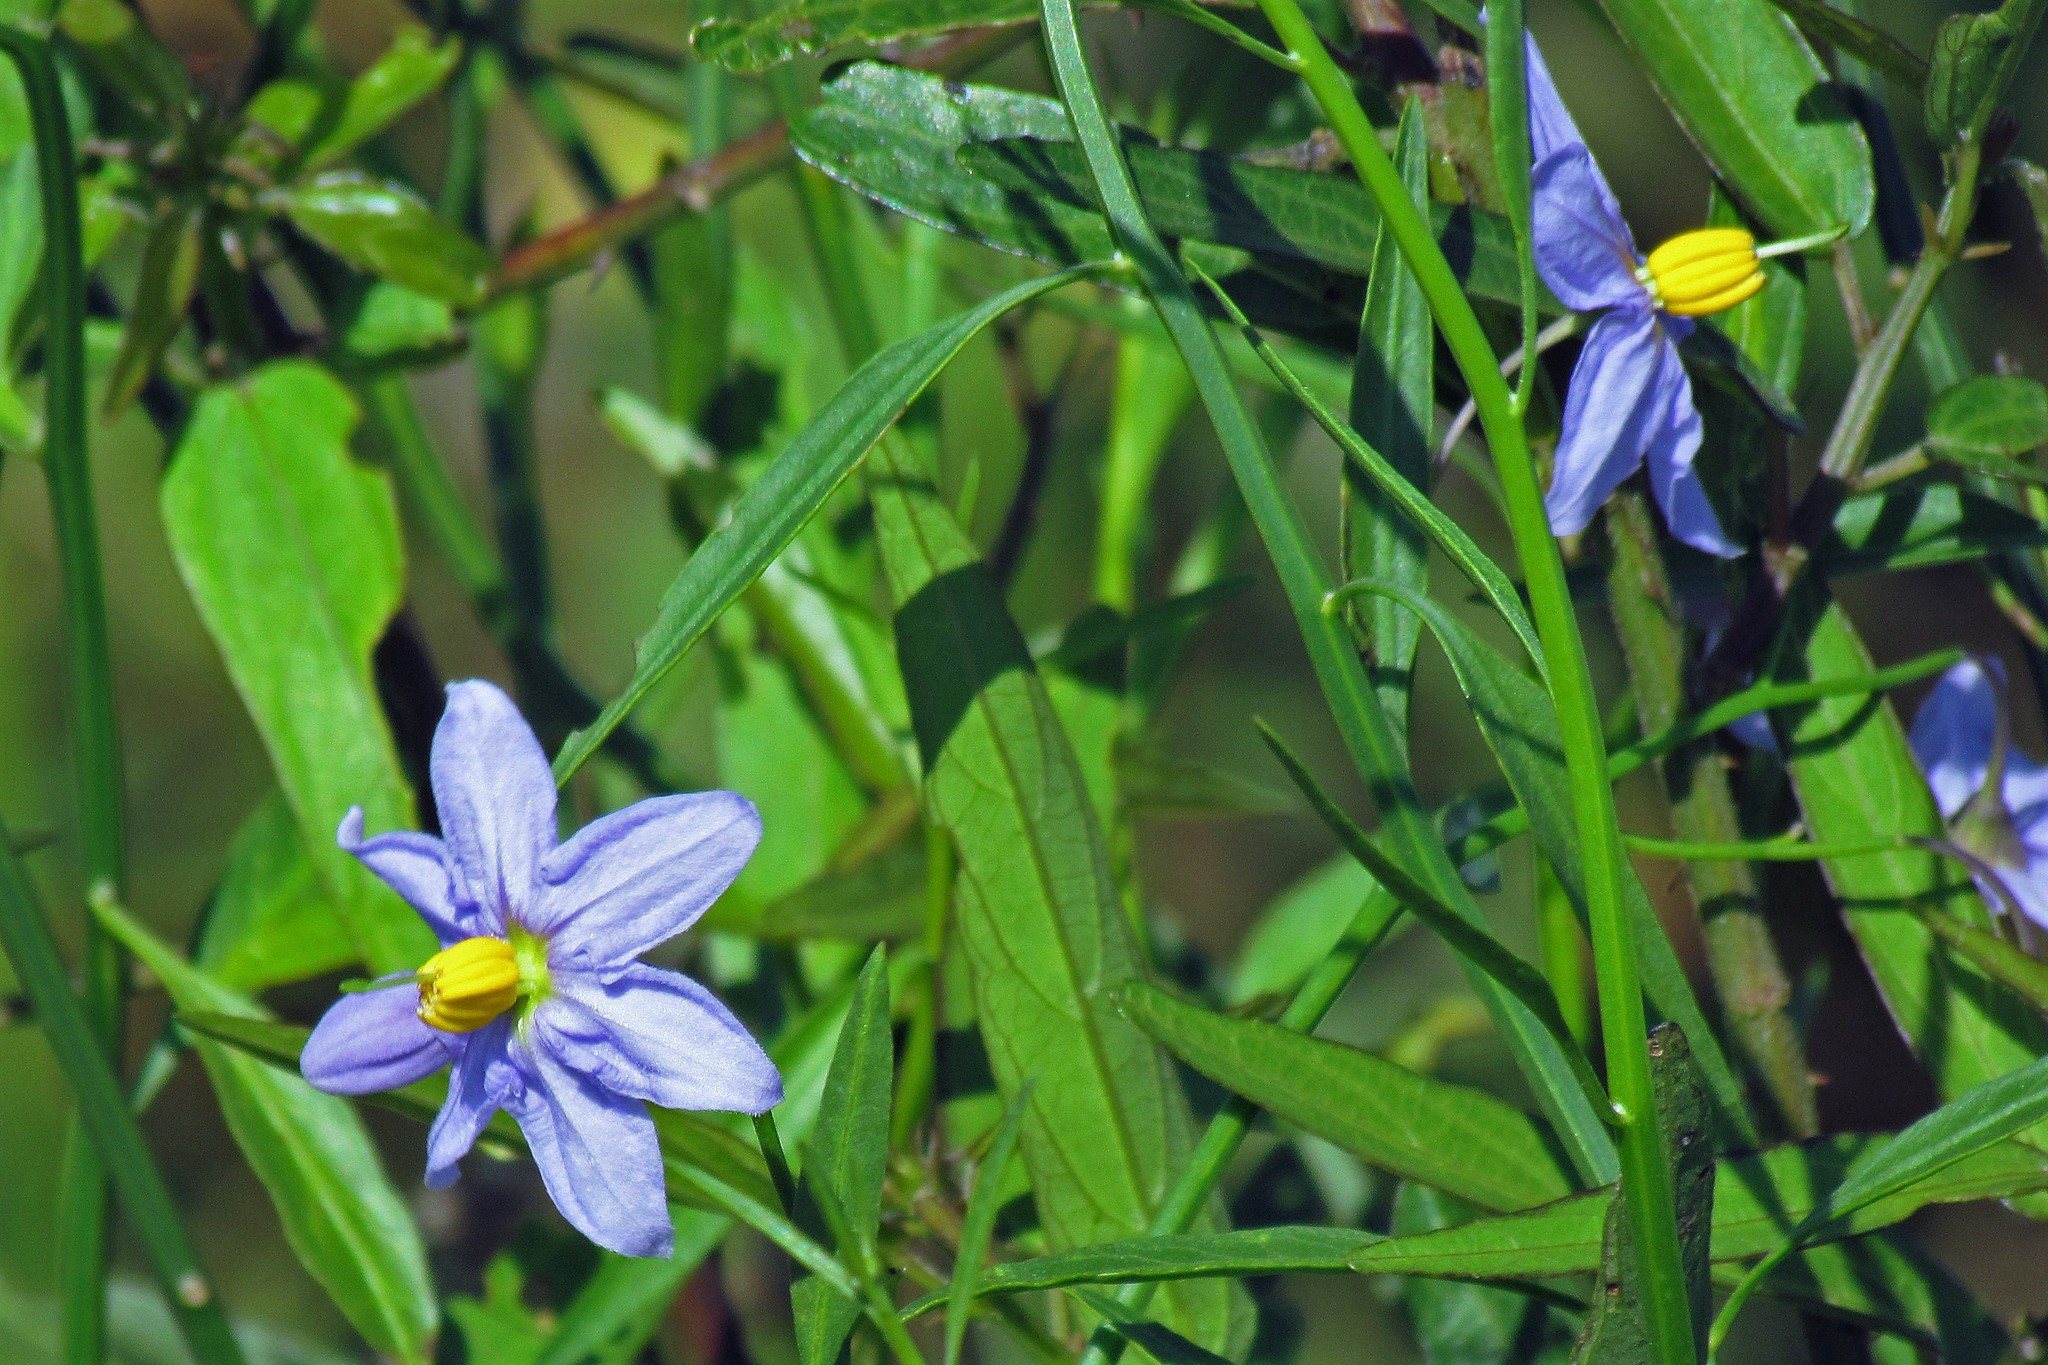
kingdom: Plantae
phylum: Tracheophyta
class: Magnoliopsida
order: Solanales
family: Solanaceae
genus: Solanum
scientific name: Solanum amygdalifolium
